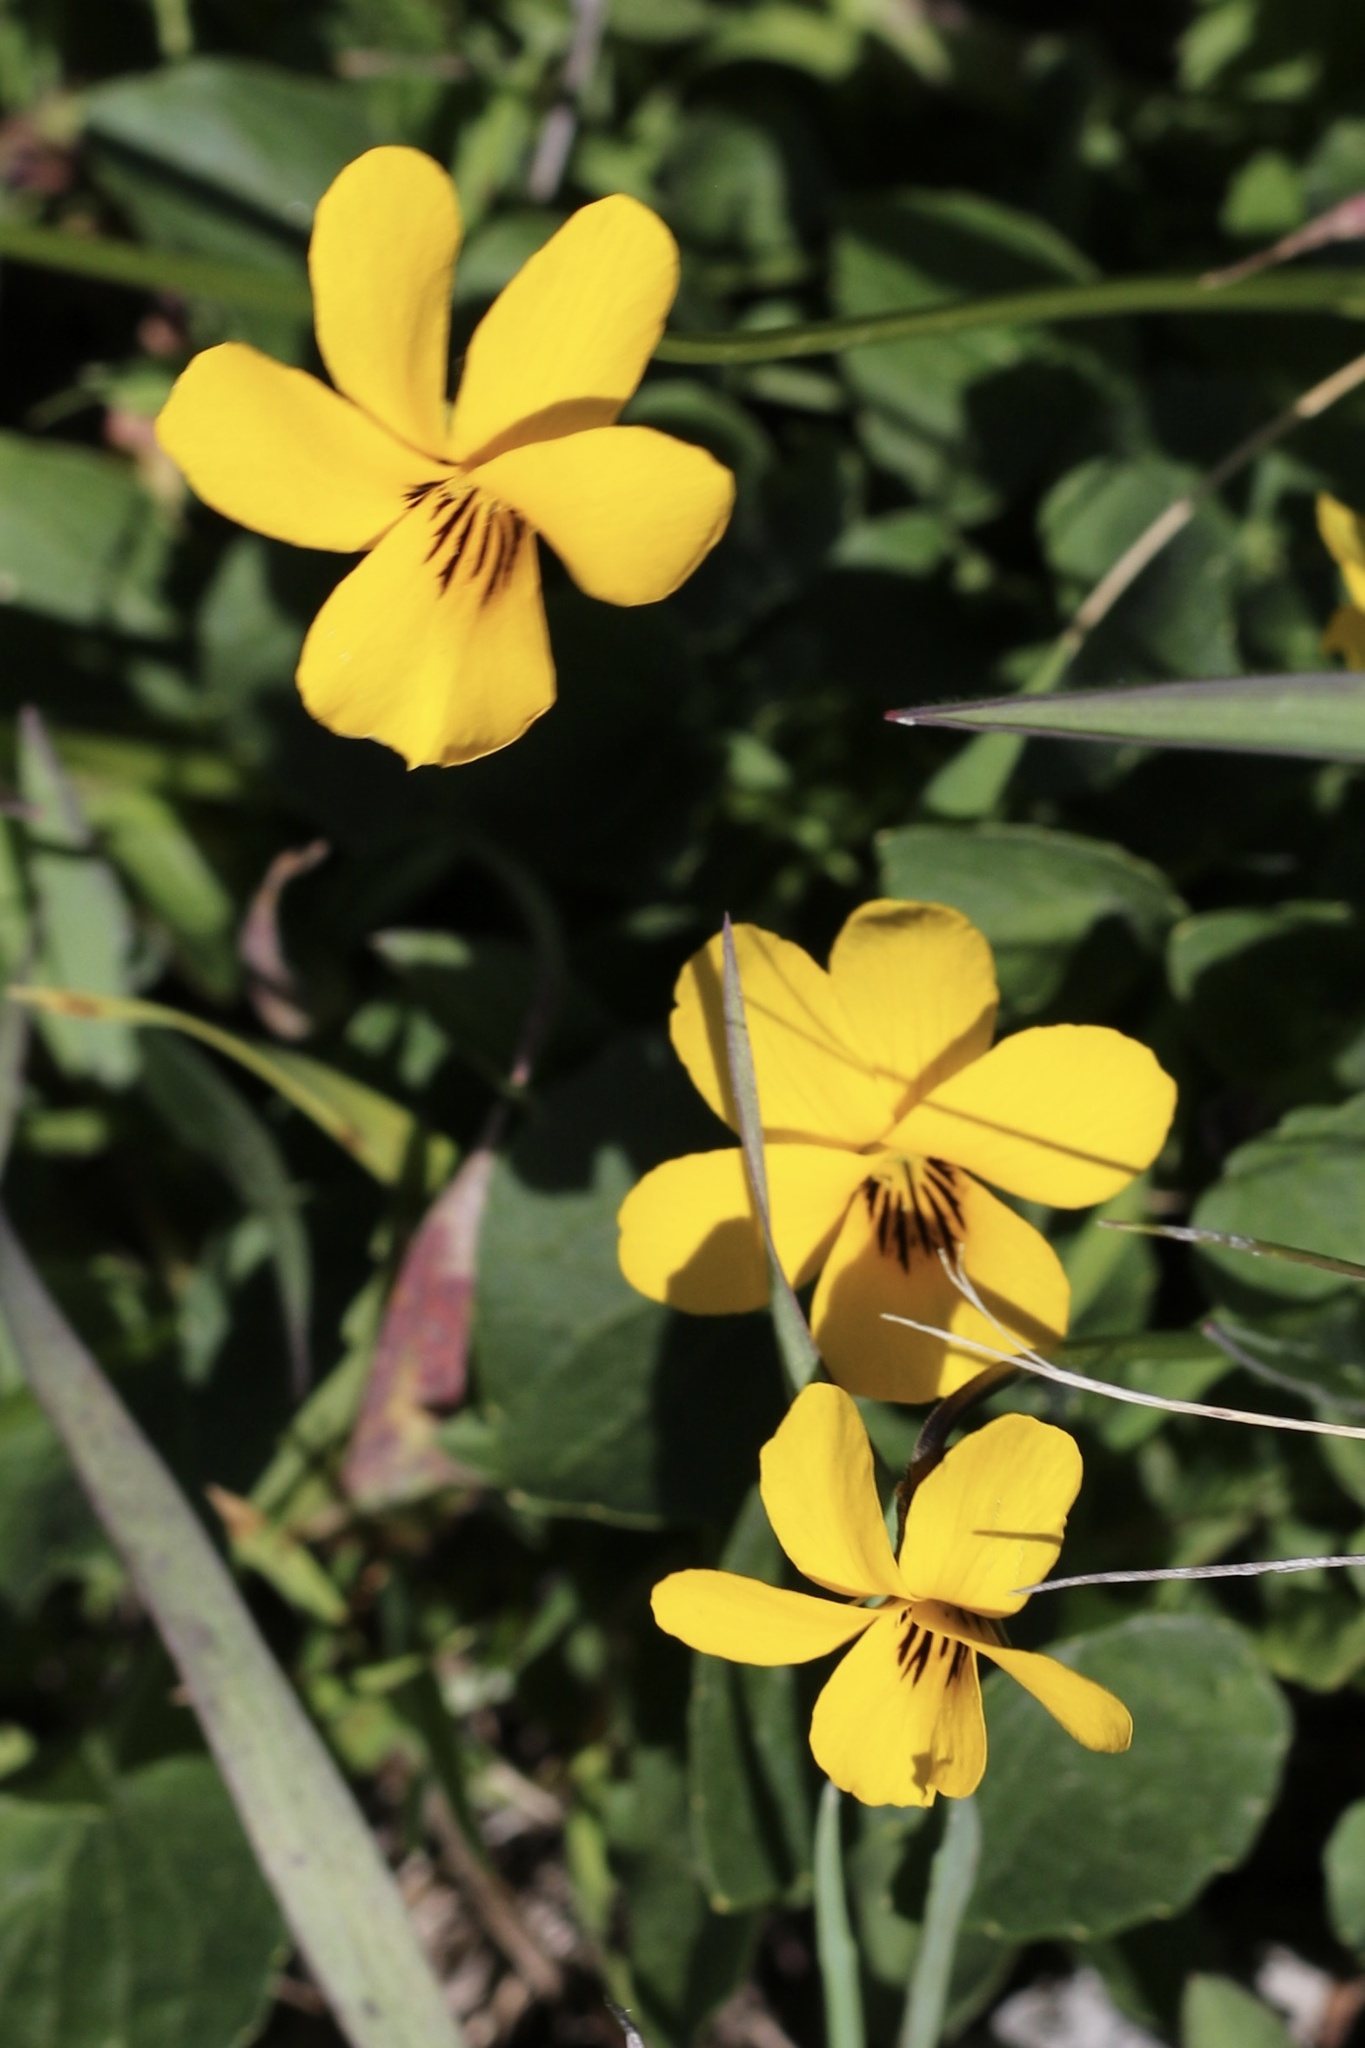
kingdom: Plantae
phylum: Tracheophyta
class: Magnoliopsida
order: Malpighiales
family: Violaceae
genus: Viola
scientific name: Viola pedunculata
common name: California golden violet
